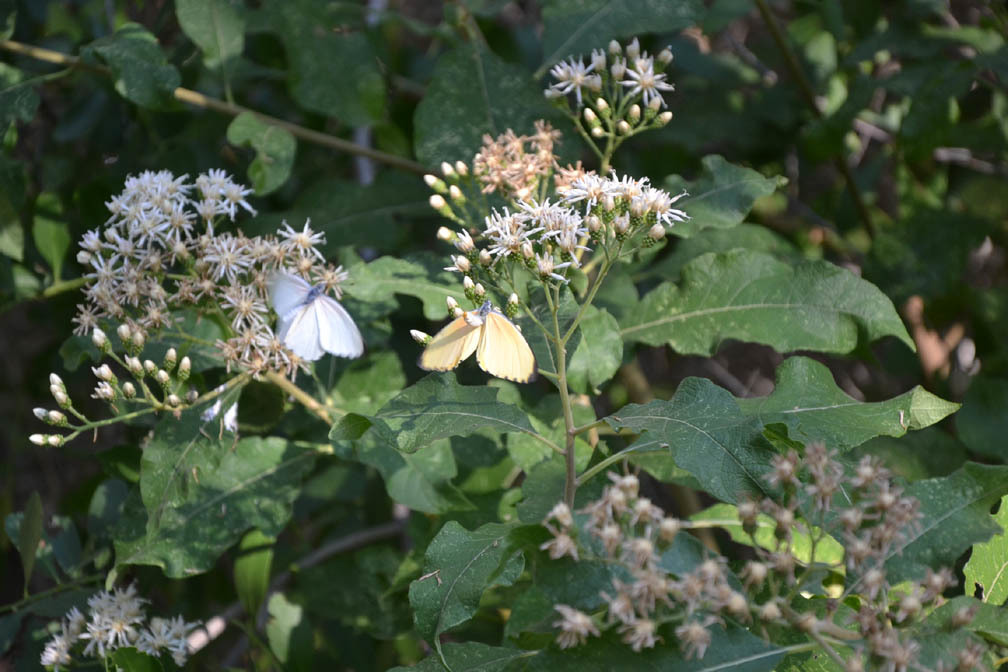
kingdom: Plantae
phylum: Tracheophyta
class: Magnoliopsida
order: Asterales
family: Asteraceae
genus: Vernonia
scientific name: Vernonia colorata
